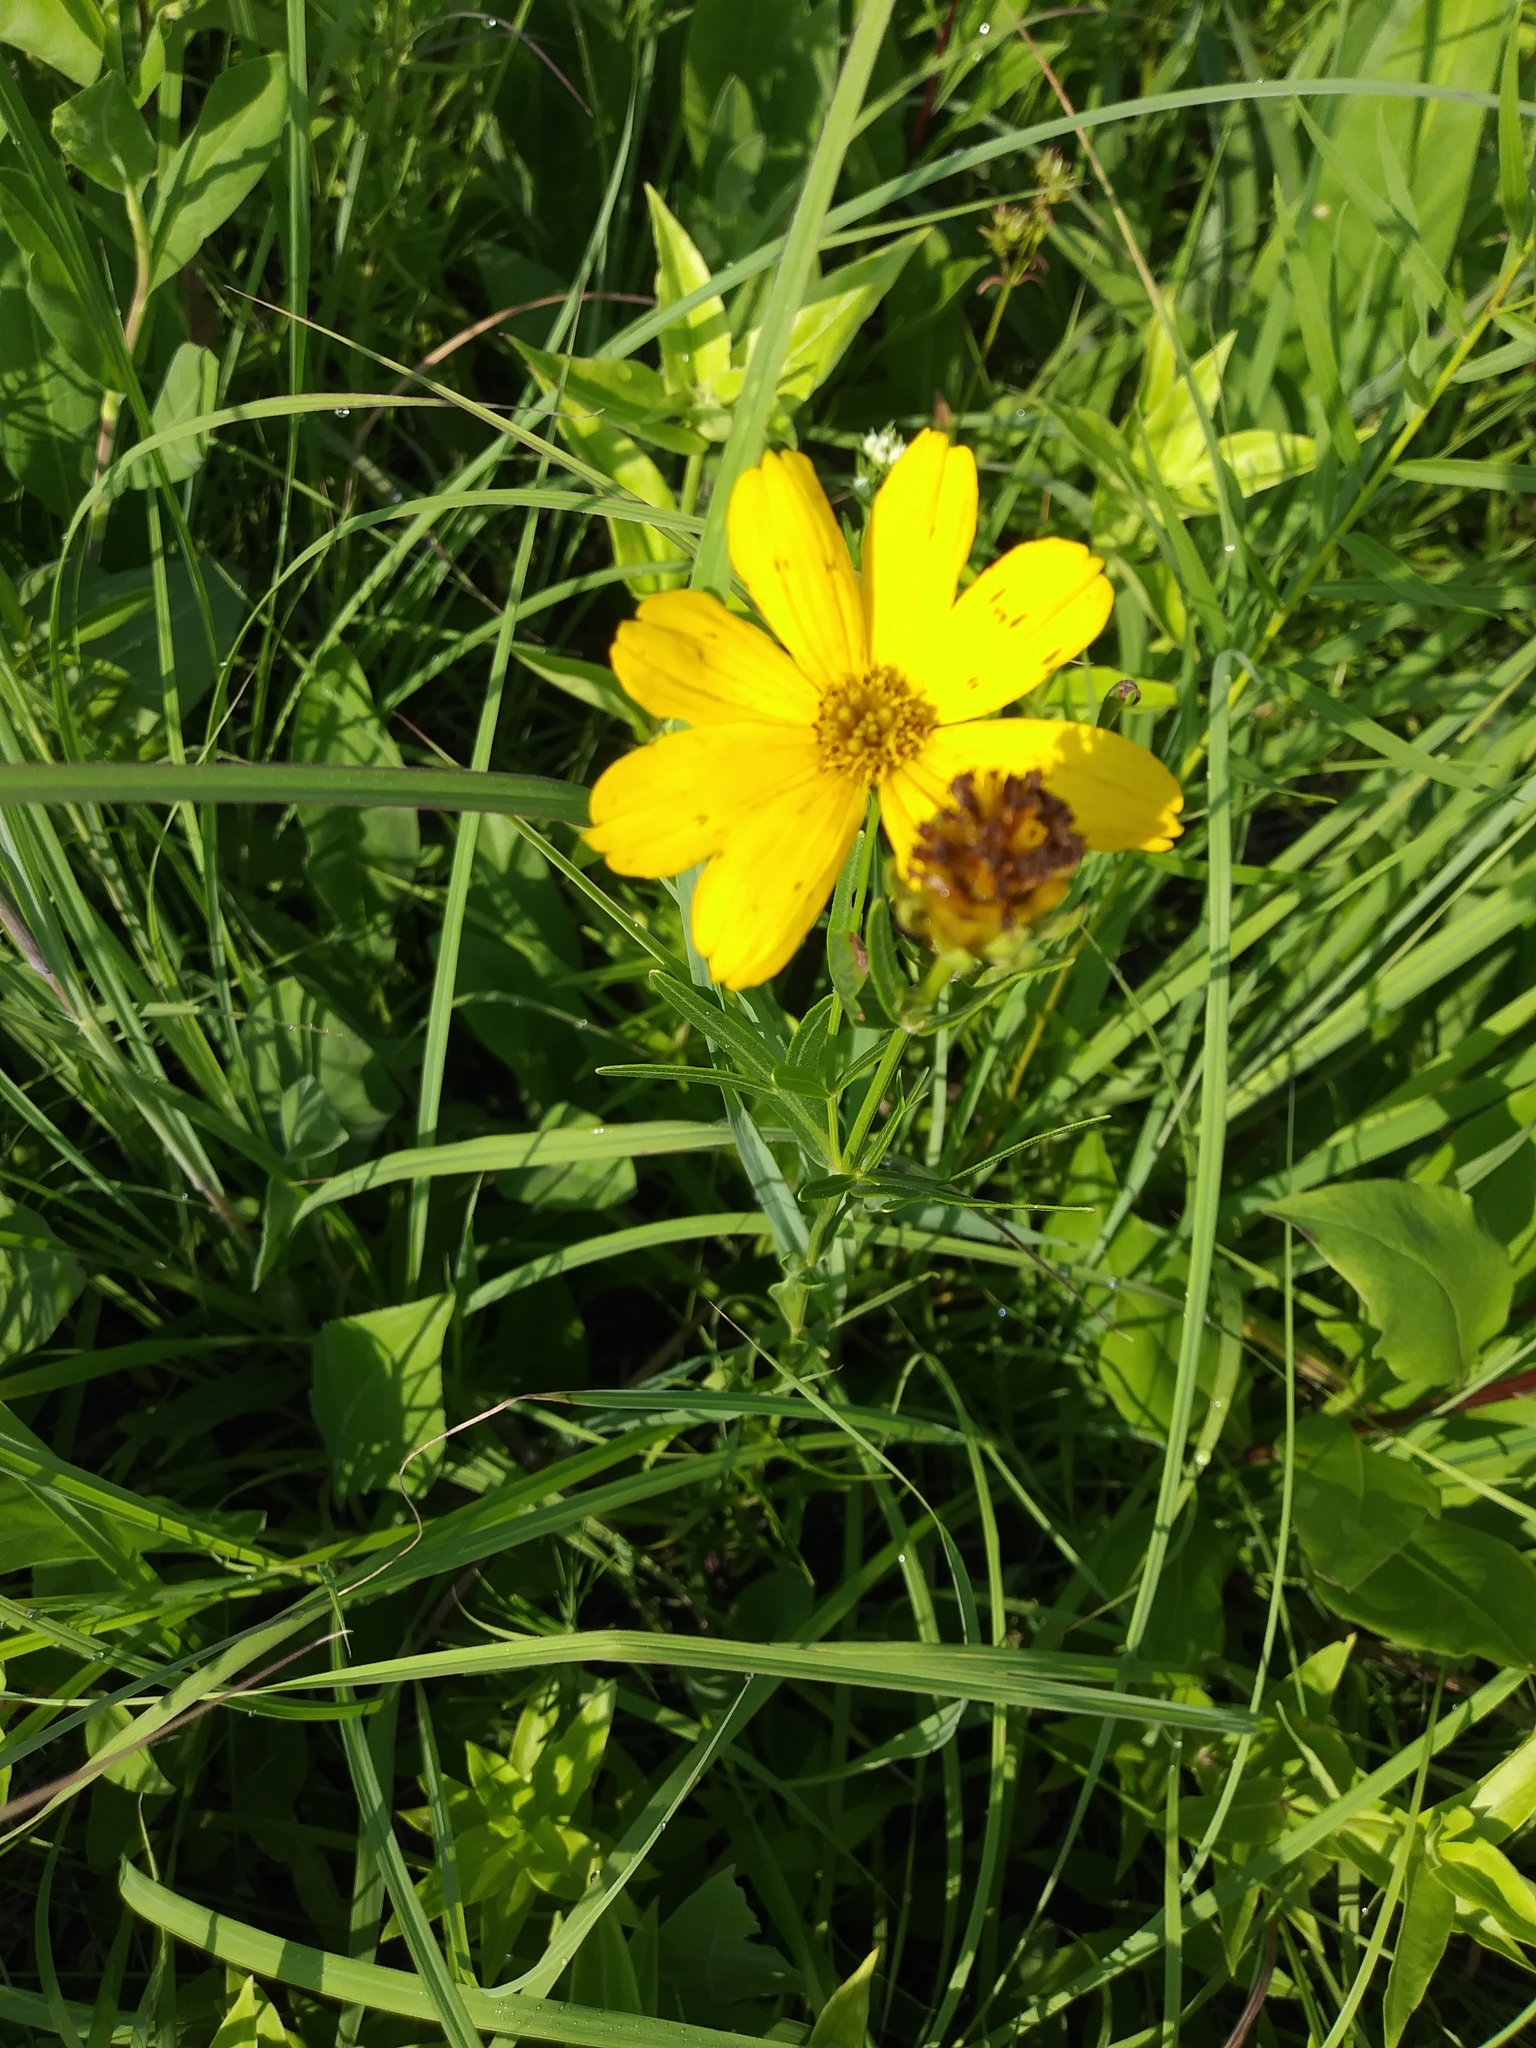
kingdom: Plantae
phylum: Tracheophyta
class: Magnoliopsida
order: Asterales
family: Asteraceae
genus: Coreopsis
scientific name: Coreopsis palmata
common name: Prairie coreopsis
